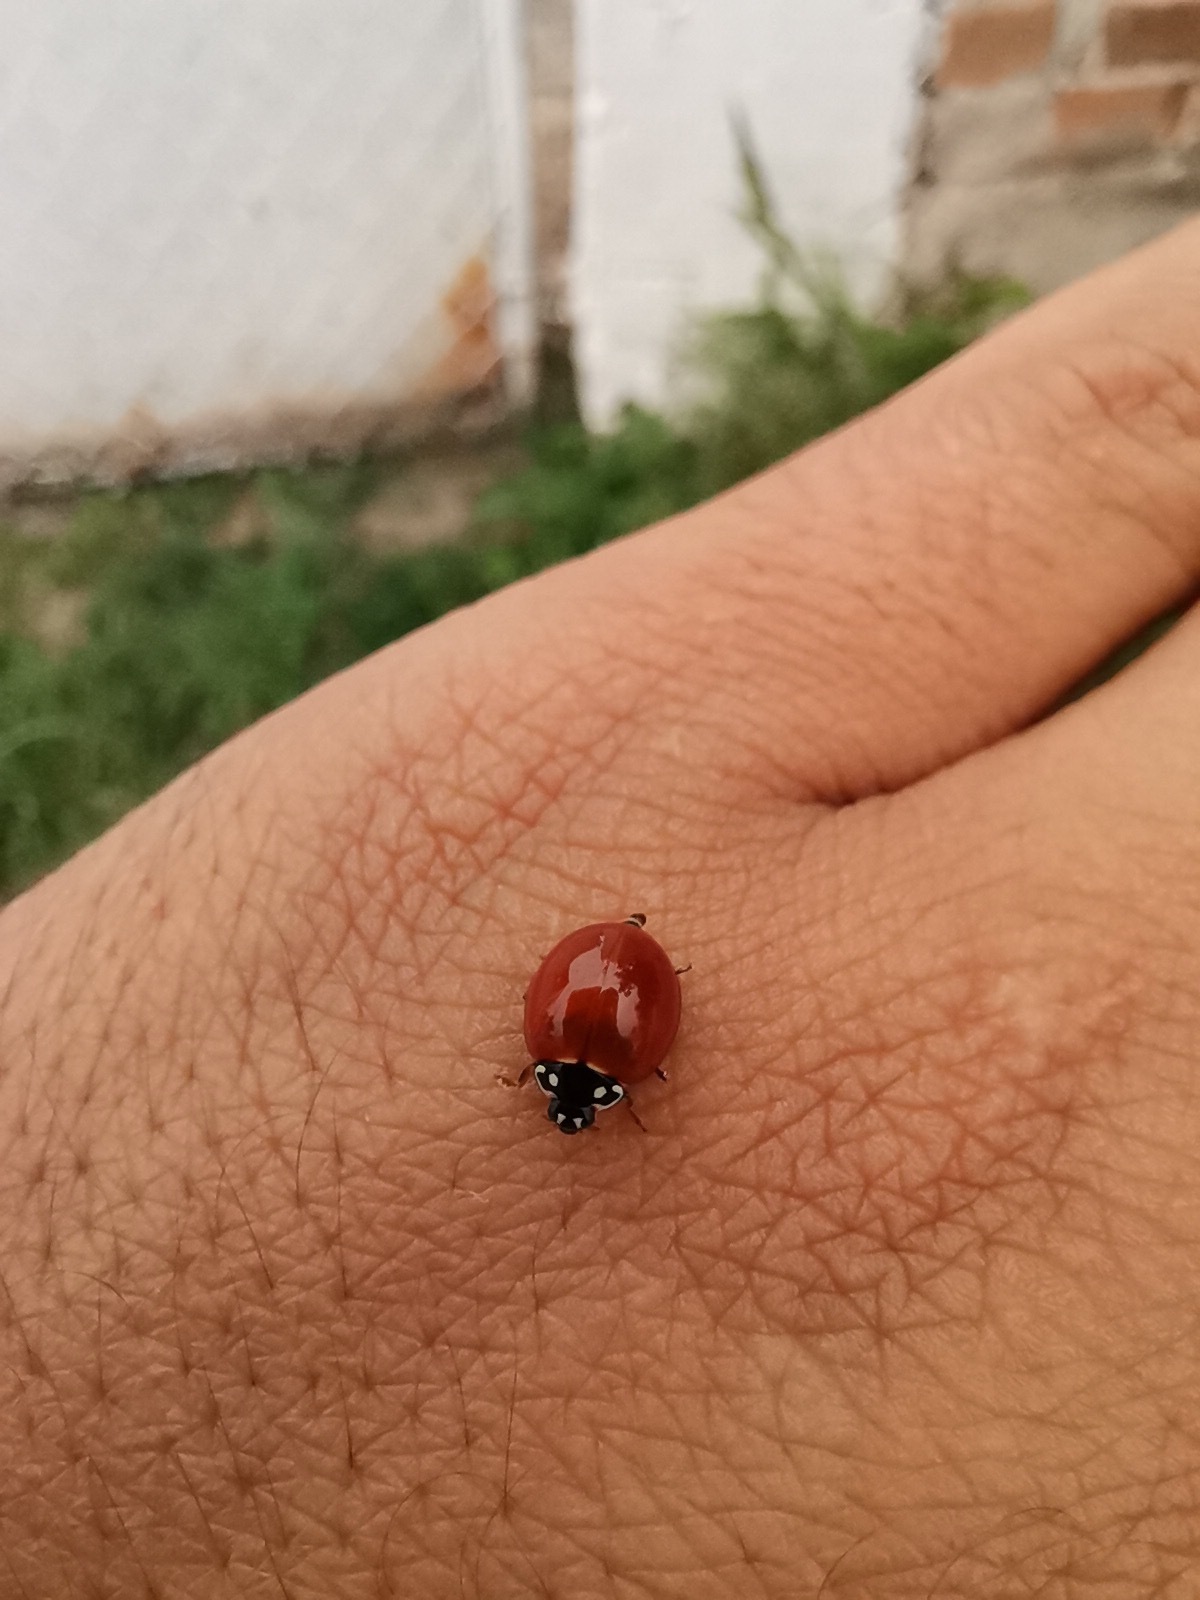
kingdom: Animalia
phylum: Arthropoda
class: Insecta
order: Coleoptera
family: Coccinellidae
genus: Cycloneda
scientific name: Cycloneda sanguinea
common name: Ladybird beetle
